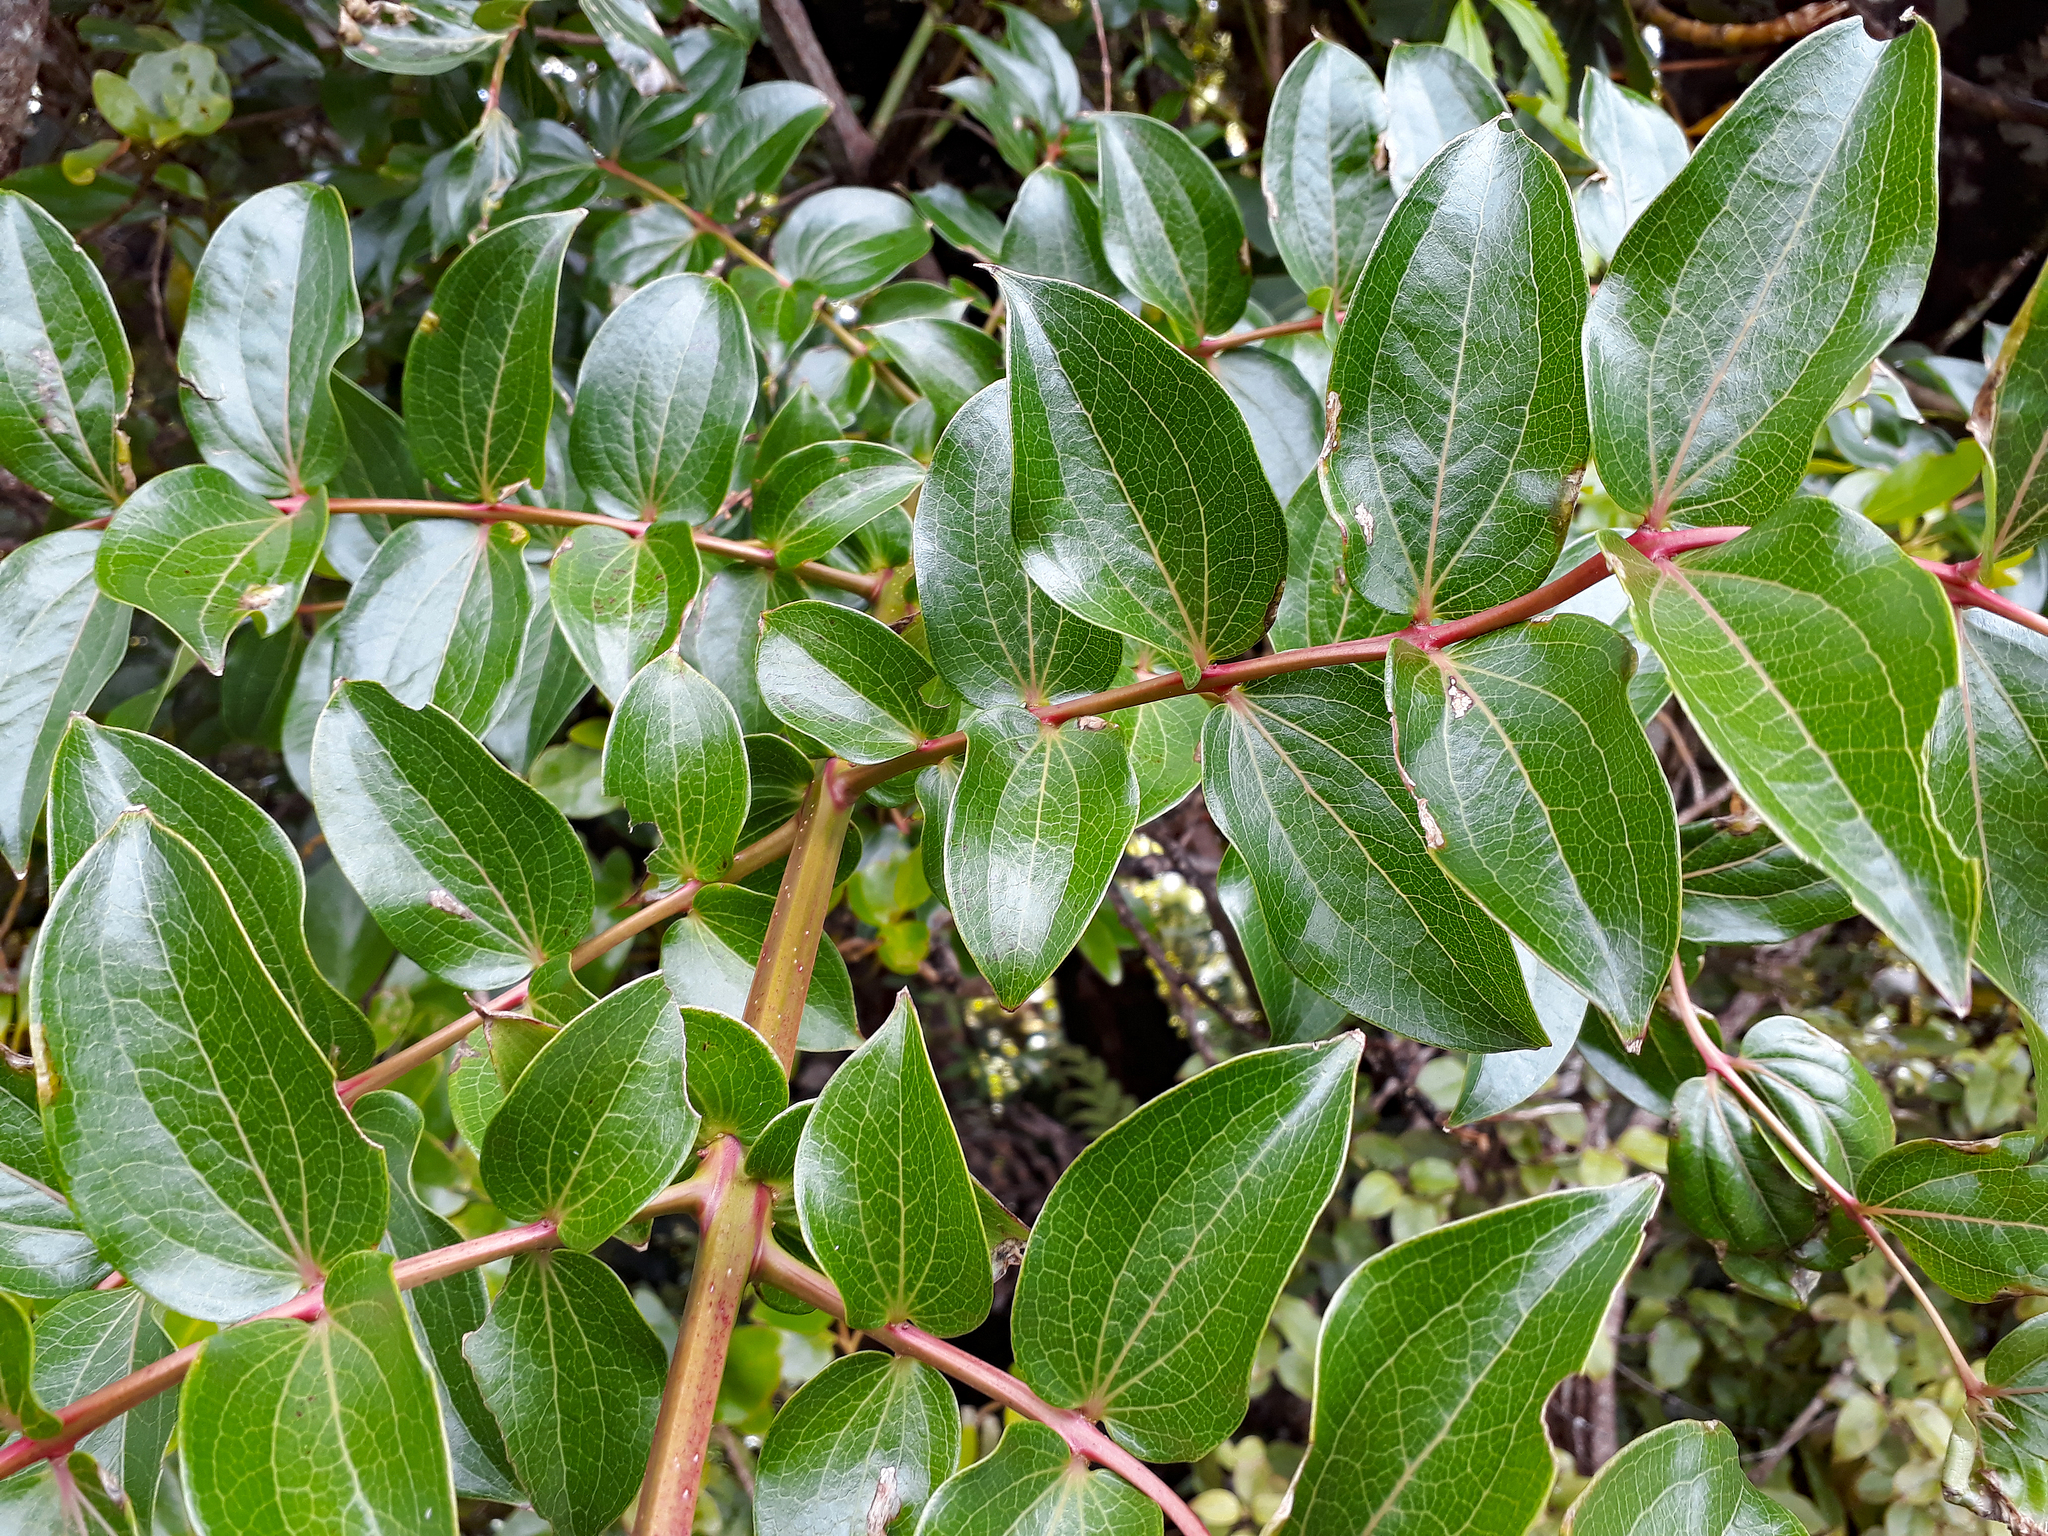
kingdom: Plantae
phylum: Tracheophyta
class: Magnoliopsida
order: Cucurbitales
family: Coriariaceae
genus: Coriaria
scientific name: Coriaria arborea
